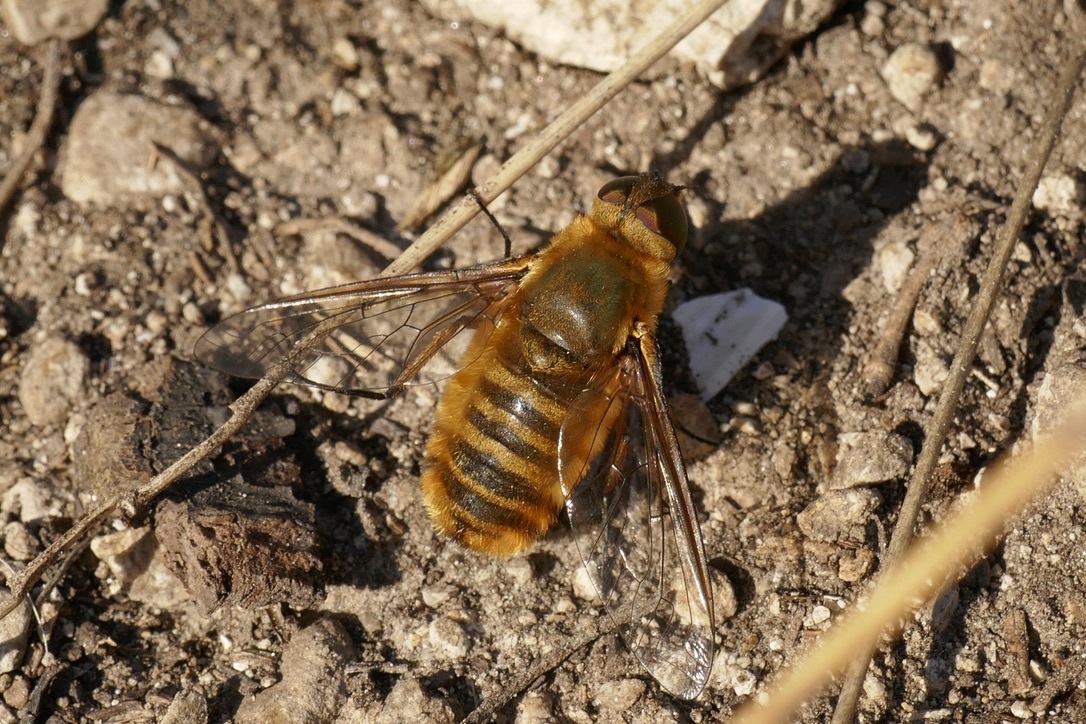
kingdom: Animalia
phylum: Arthropoda
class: Insecta
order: Diptera
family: Bombyliidae
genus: Villa
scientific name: Villa hottentotta
